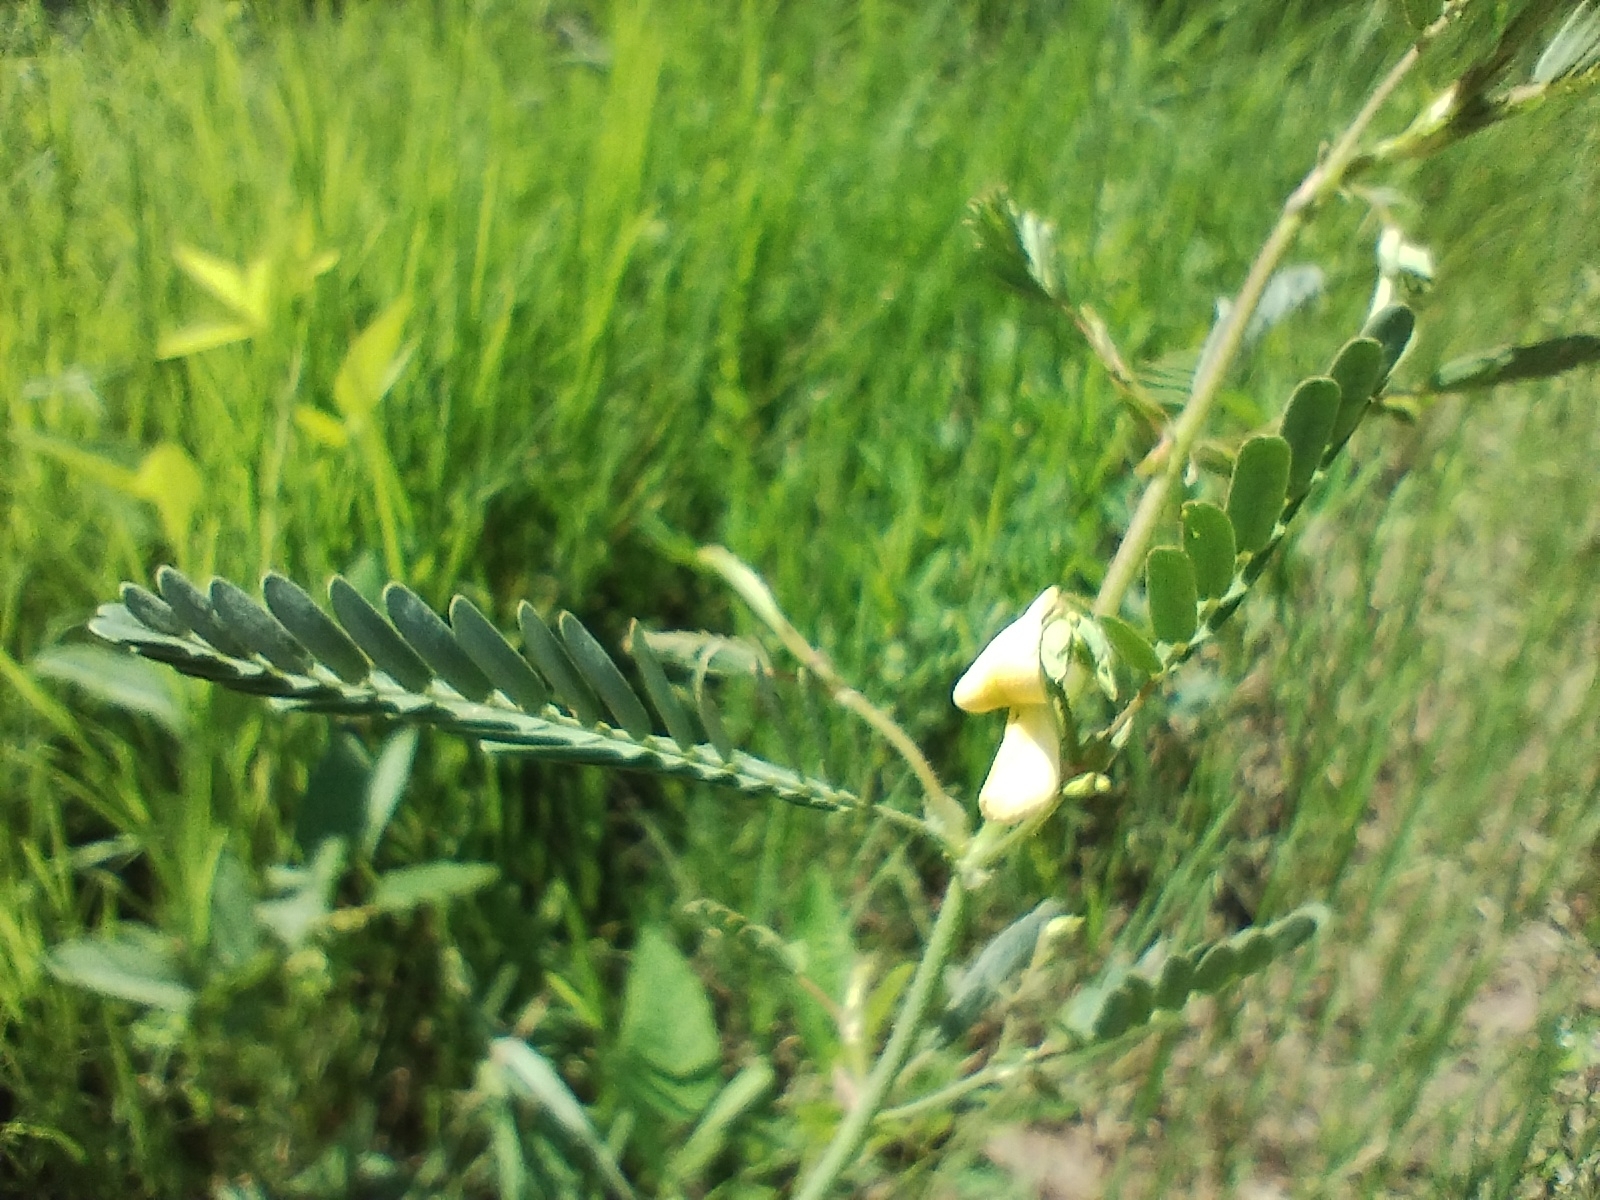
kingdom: Plantae
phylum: Tracheophyta
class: Magnoliopsida
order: Fabales
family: Fabaceae
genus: Aeschynomene
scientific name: Aeschynomene evenia
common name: Shrubby jointvetch
